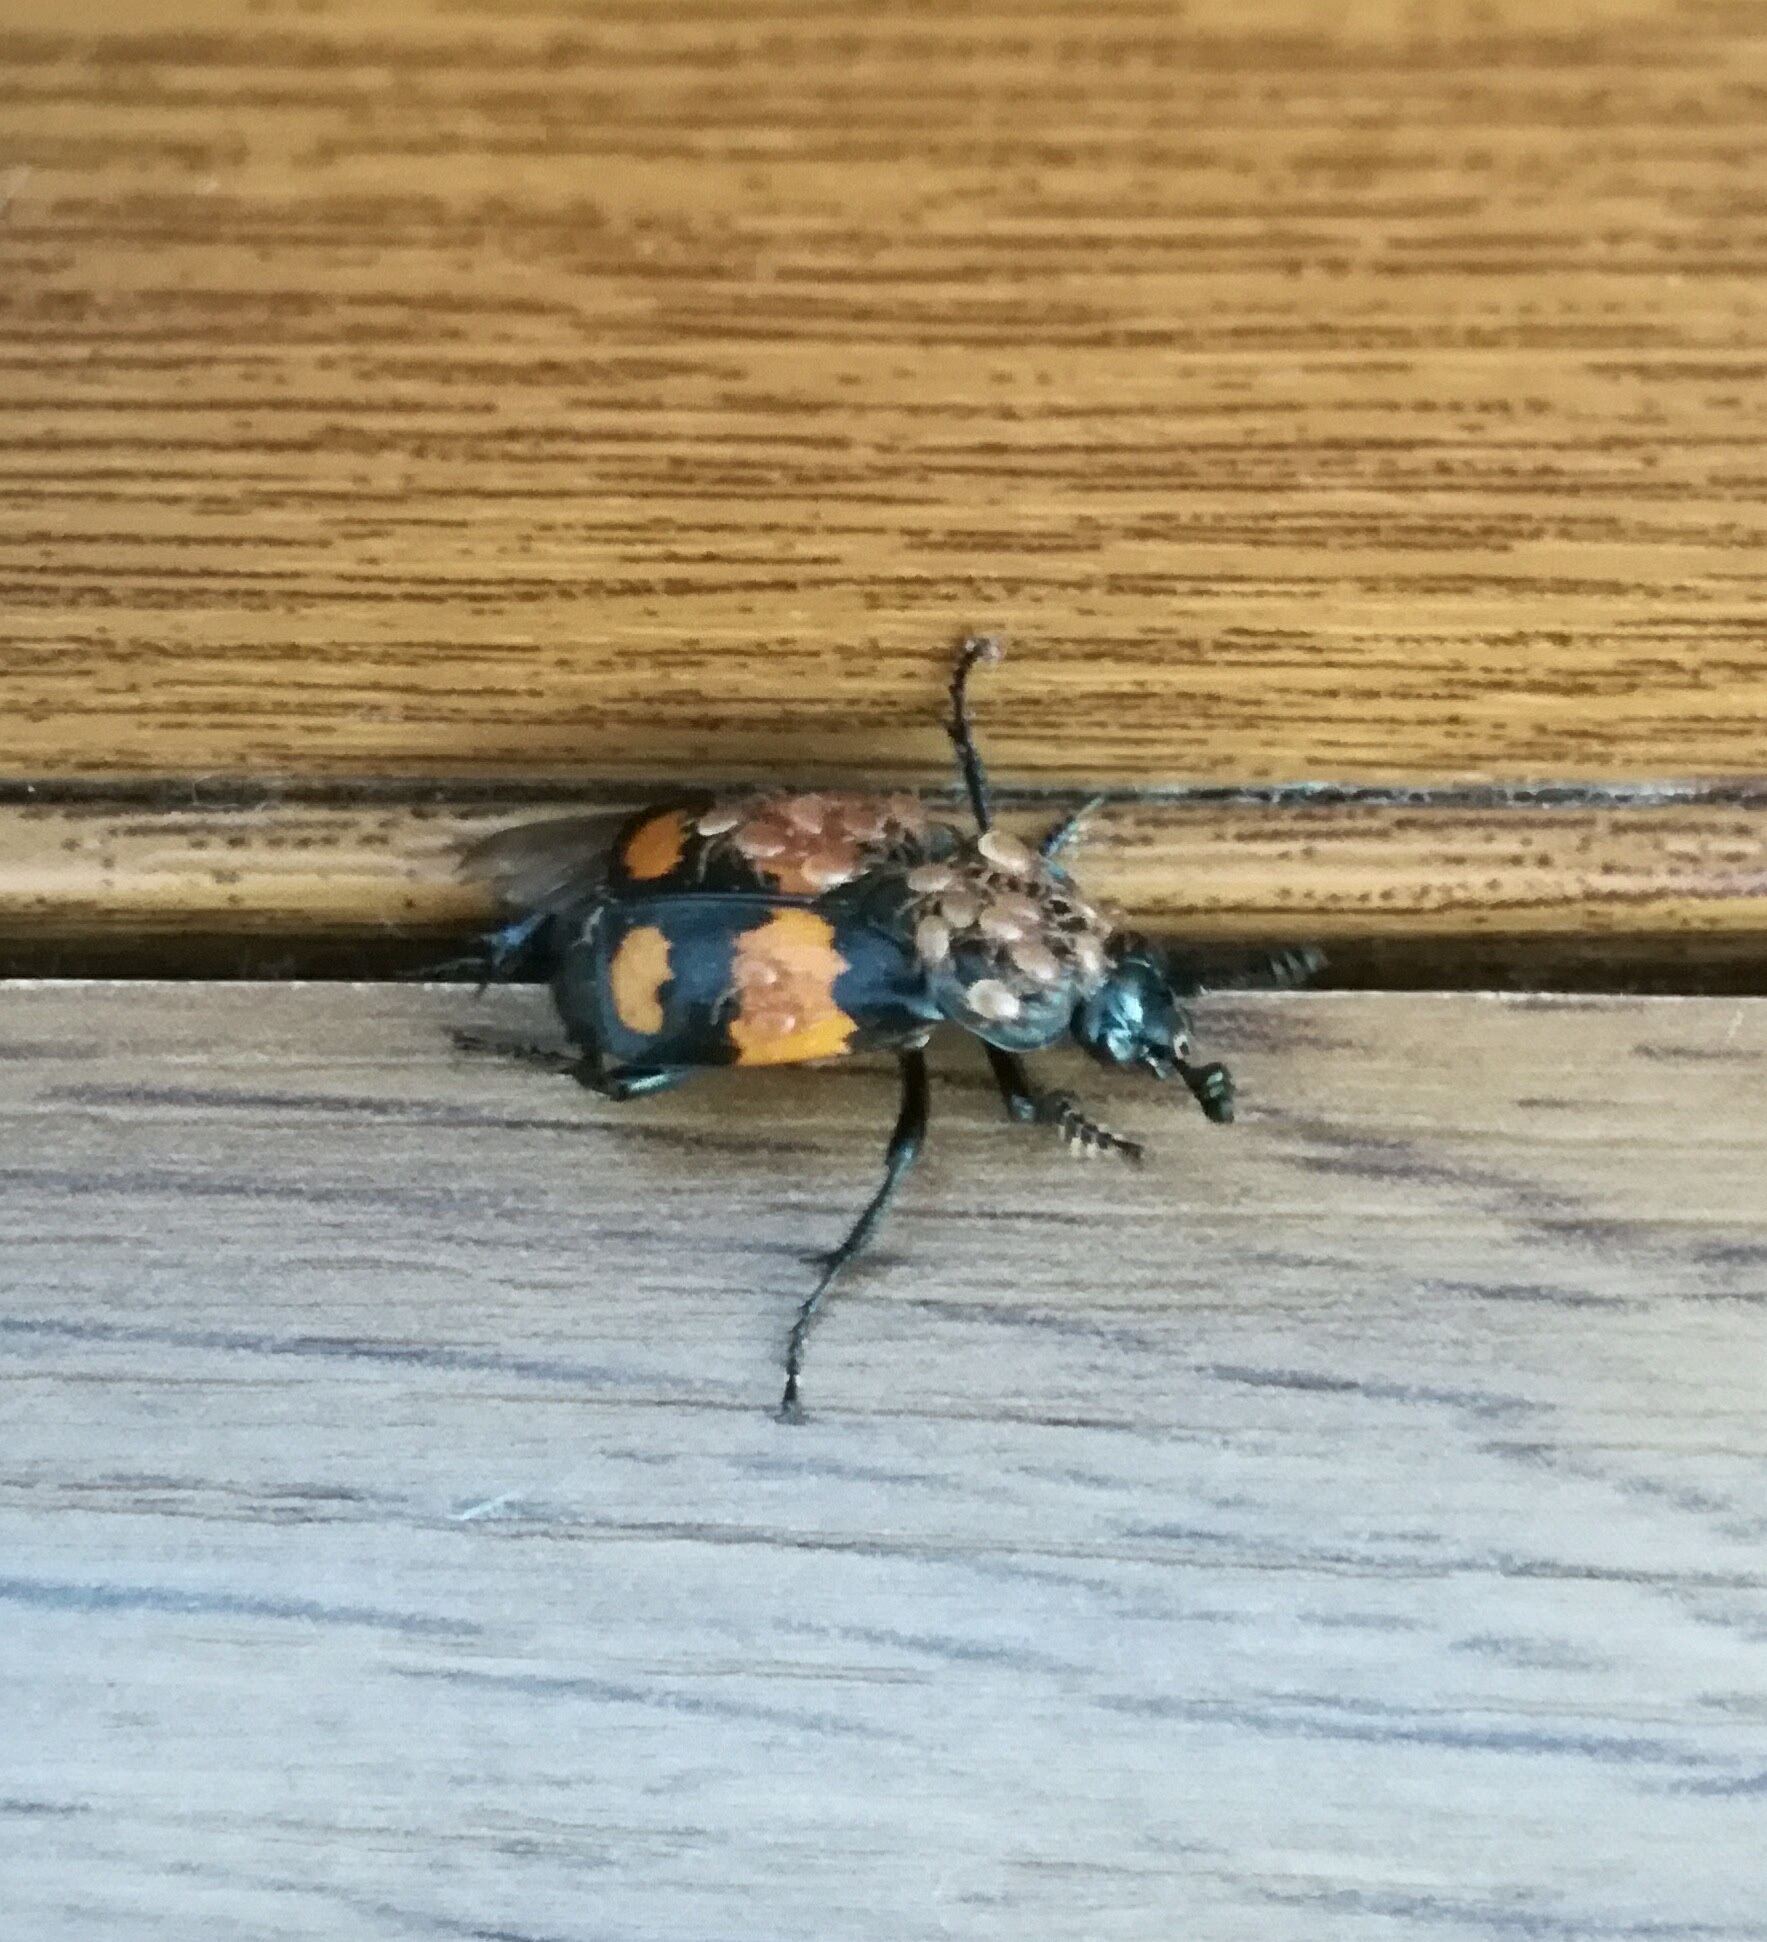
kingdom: Animalia
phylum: Arthropoda
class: Insecta
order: Coleoptera
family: Staphylinidae
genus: Nicrophorus
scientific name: Nicrophorus vespilloides
